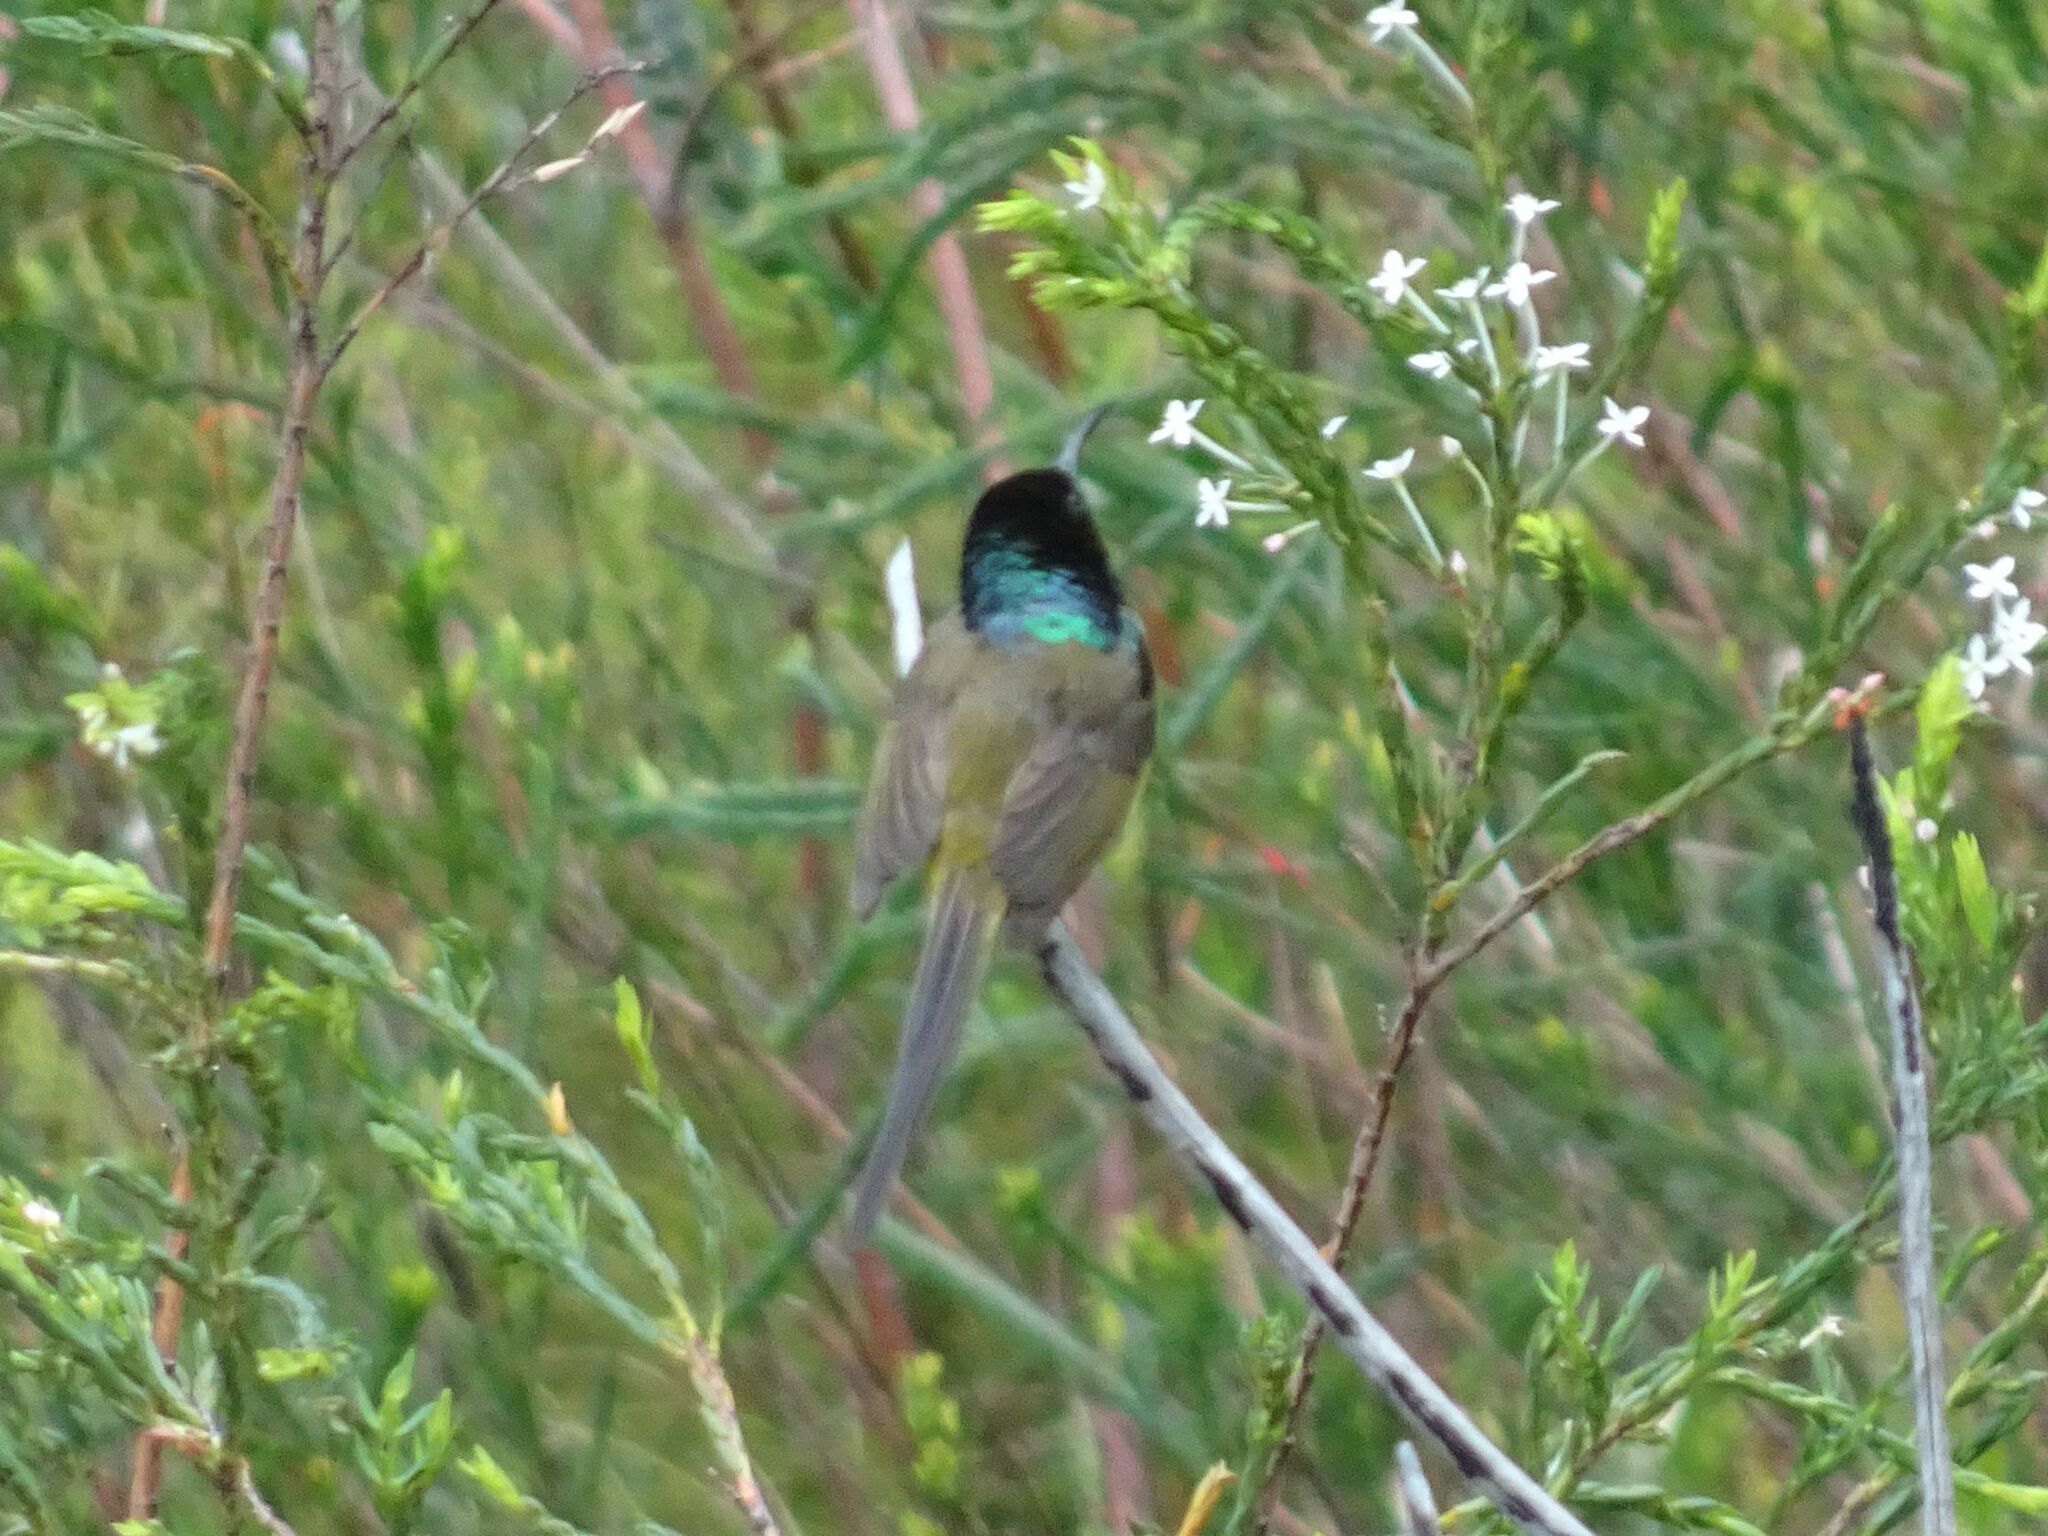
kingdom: Animalia
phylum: Chordata
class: Aves
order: Passeriformes
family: Nectariniidae
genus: Anthobaphes
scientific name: Anthobaphes violacea
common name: Orange-breasted sunbird
